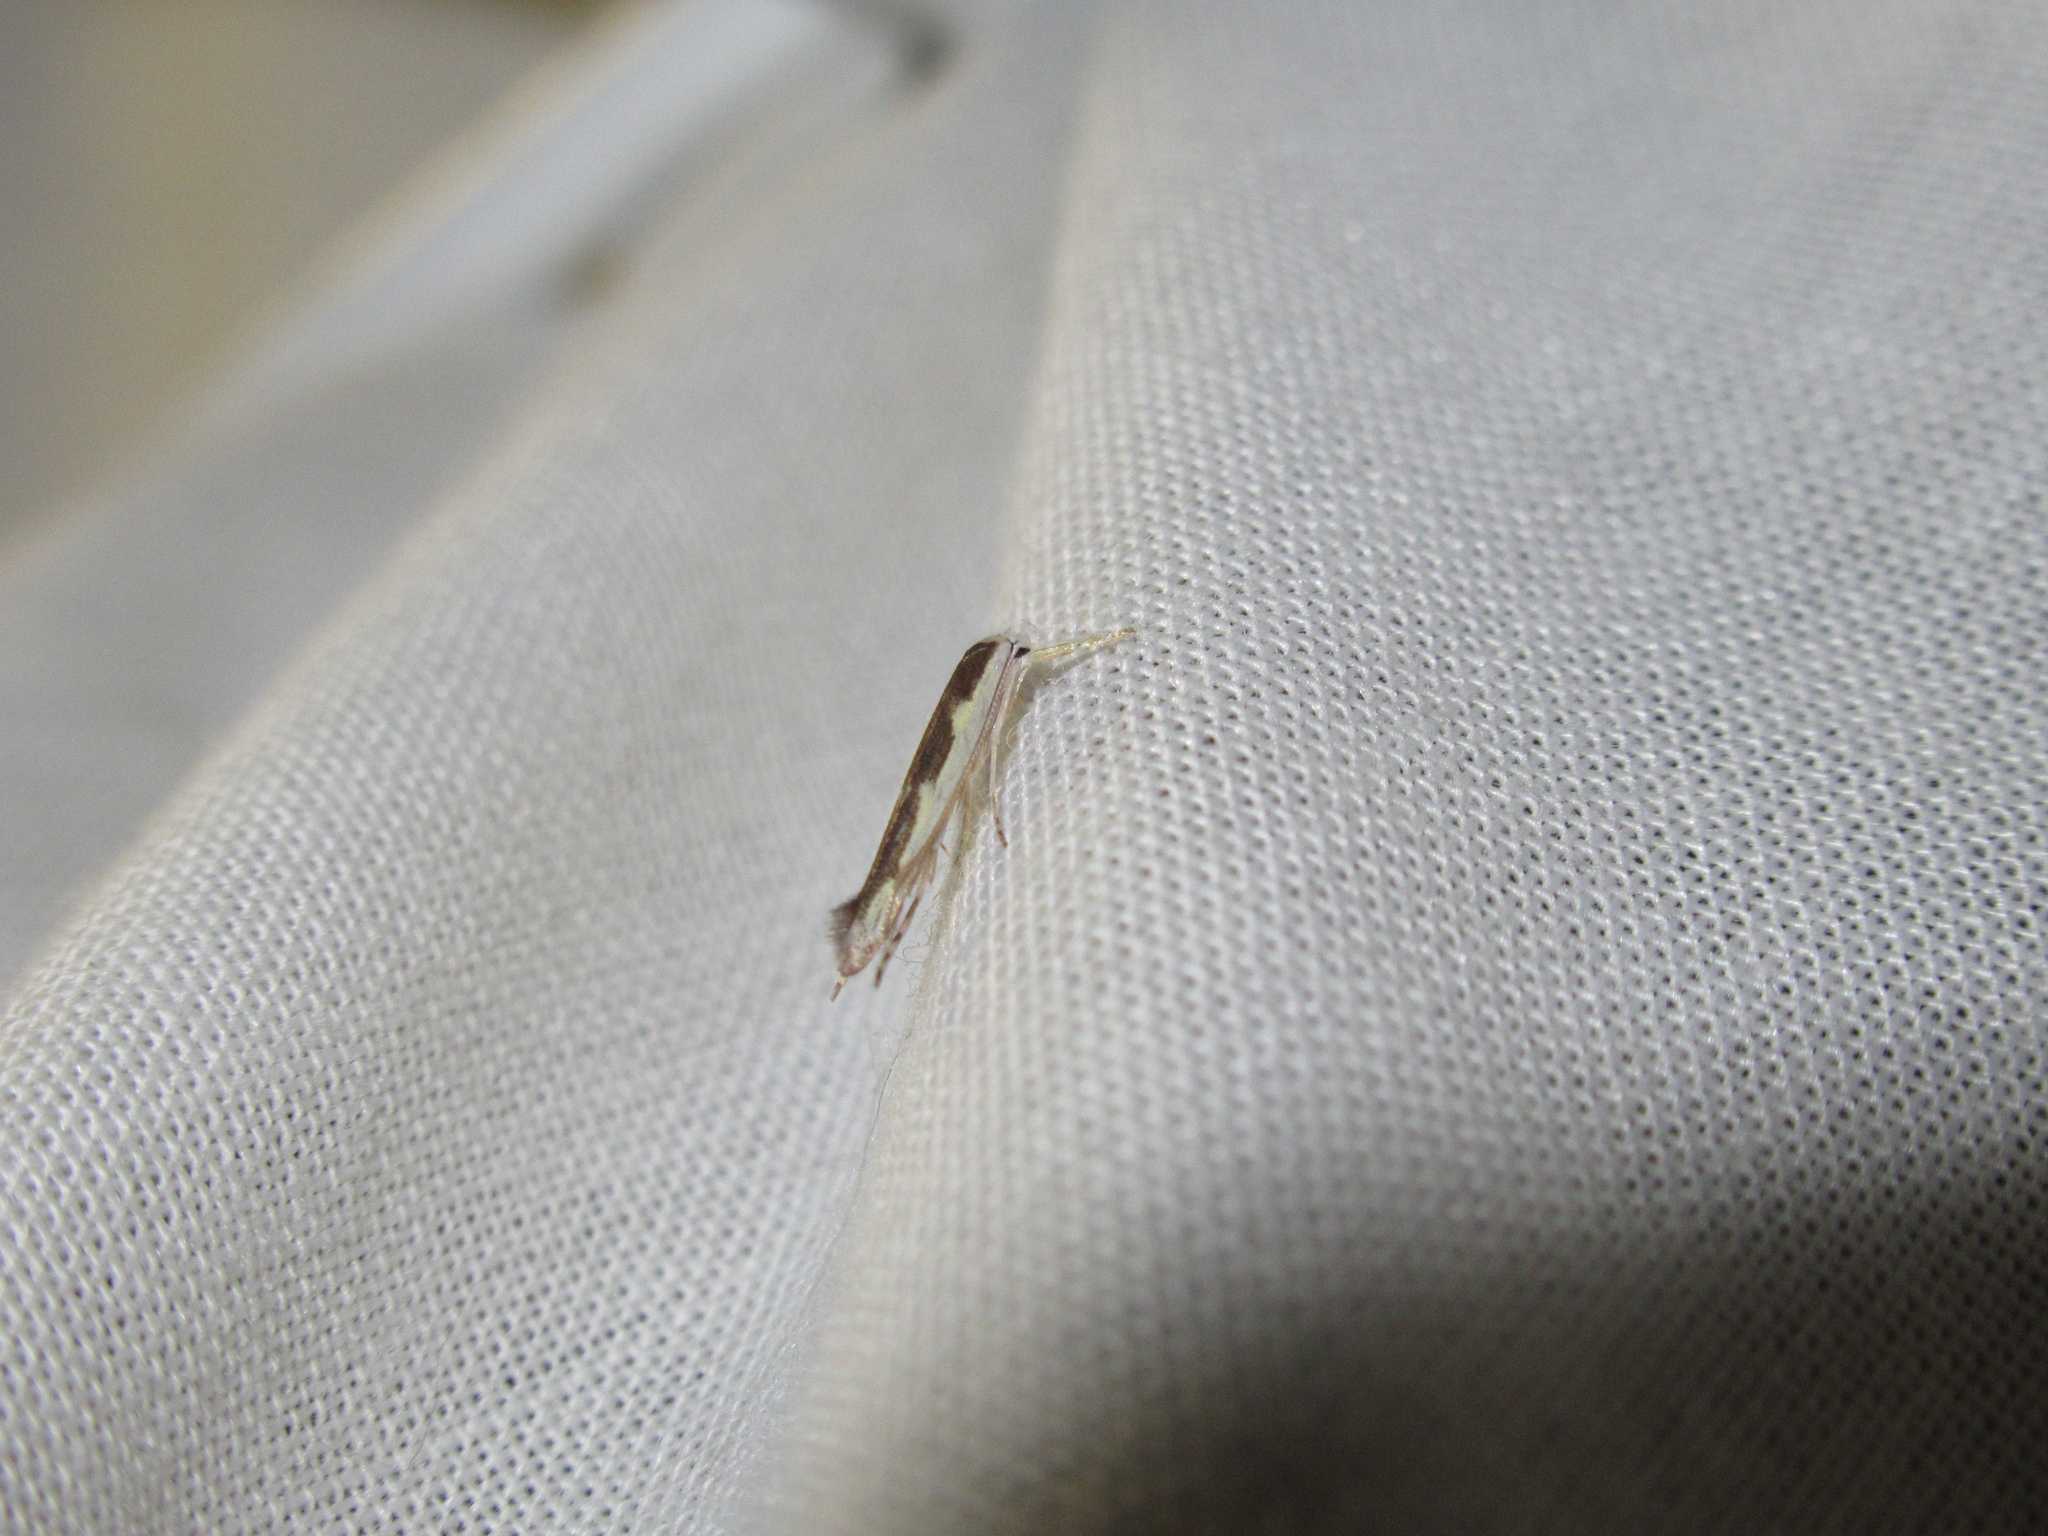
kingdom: Animalia
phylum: Arthropoda
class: Insecta
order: Lepidoptera
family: Roeslerstammiidae
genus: Vanicela
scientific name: Vanicela disjunctella
